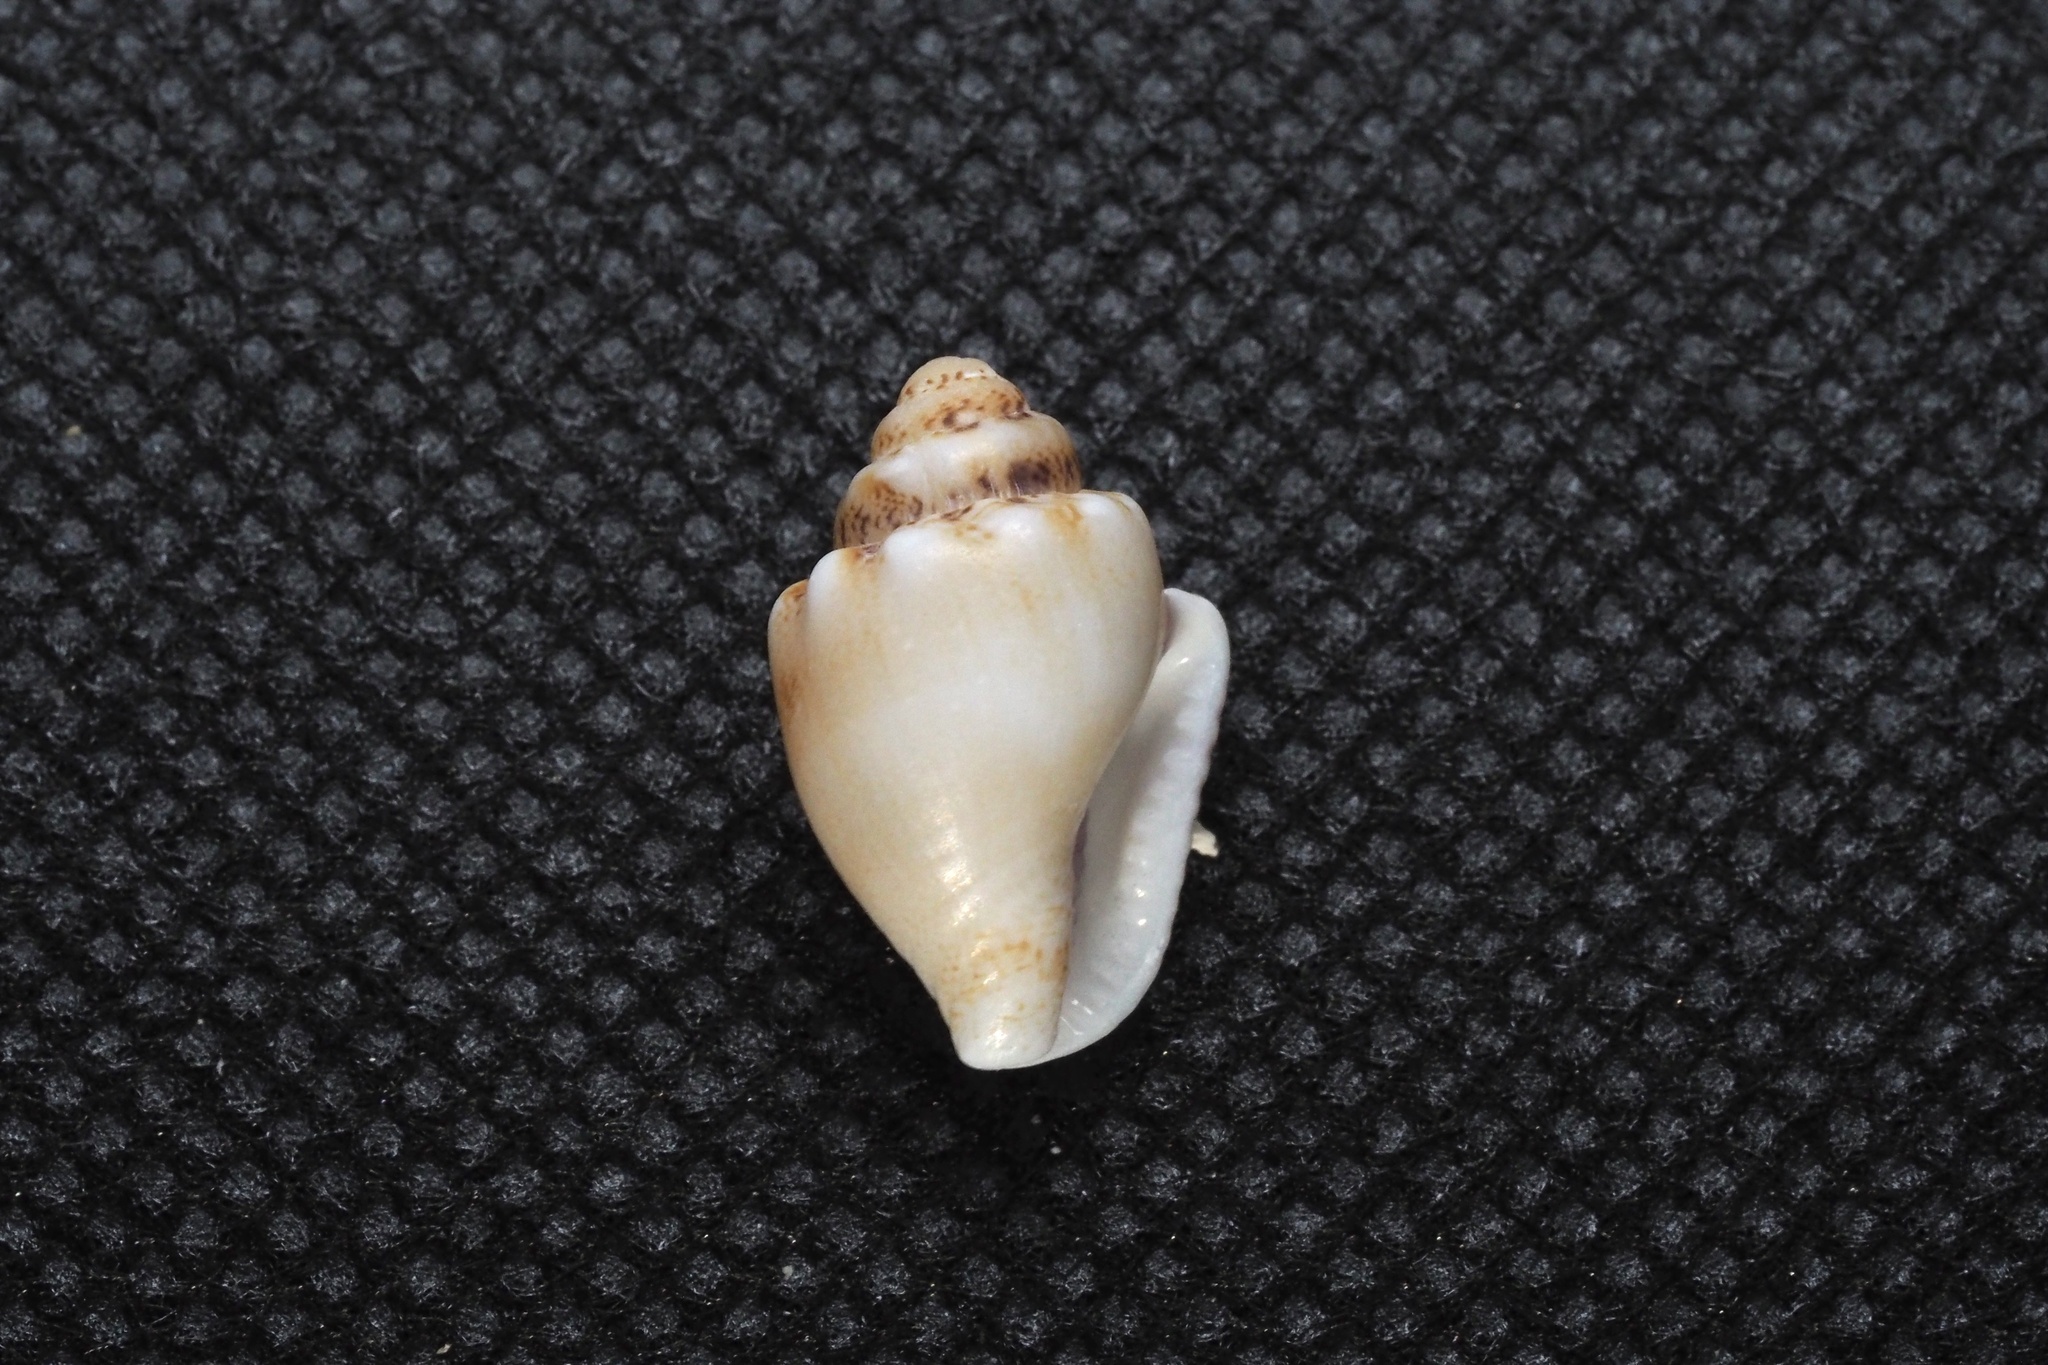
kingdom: Animalia
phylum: Mollusca
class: Gastropoda
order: Neogastropoda
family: Columbellidae
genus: Euplica
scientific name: Euplica scripta
